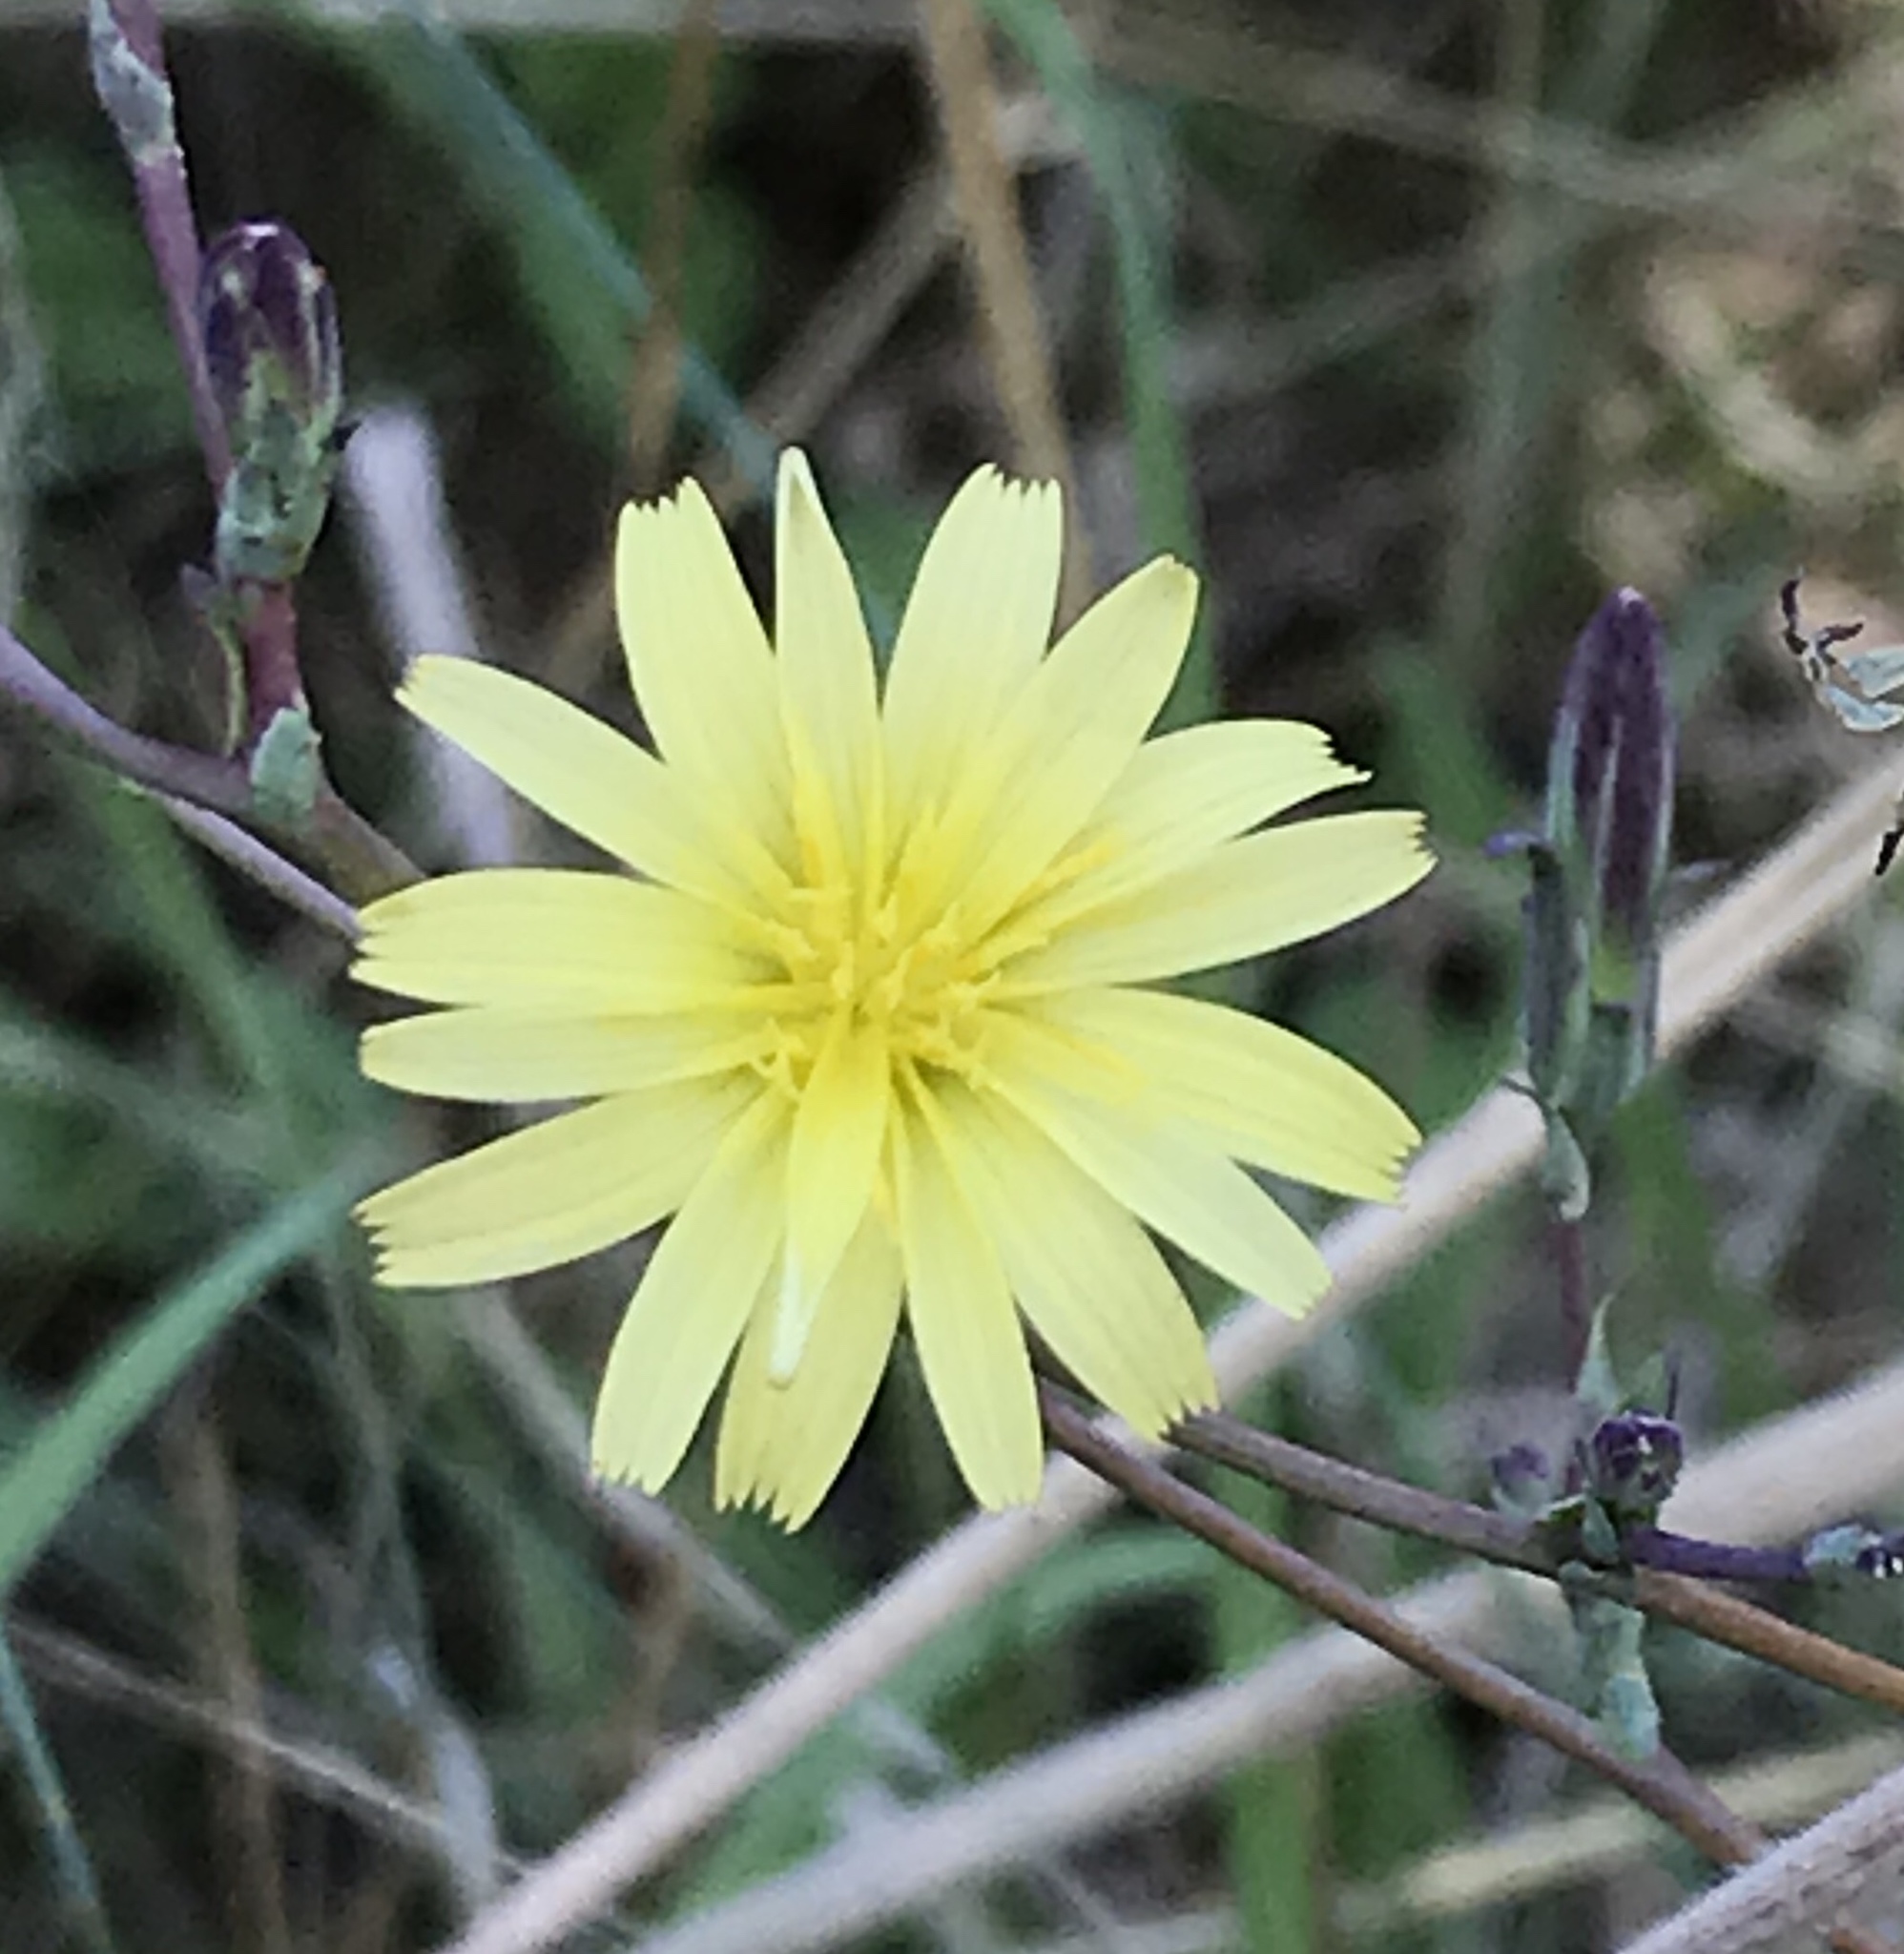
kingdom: Plantae
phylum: Tracheophyta
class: Magnoliopsida
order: Asterales
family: Asteraceae
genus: Lactuca
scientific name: Lactuca serriola
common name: Prickly lettuce
